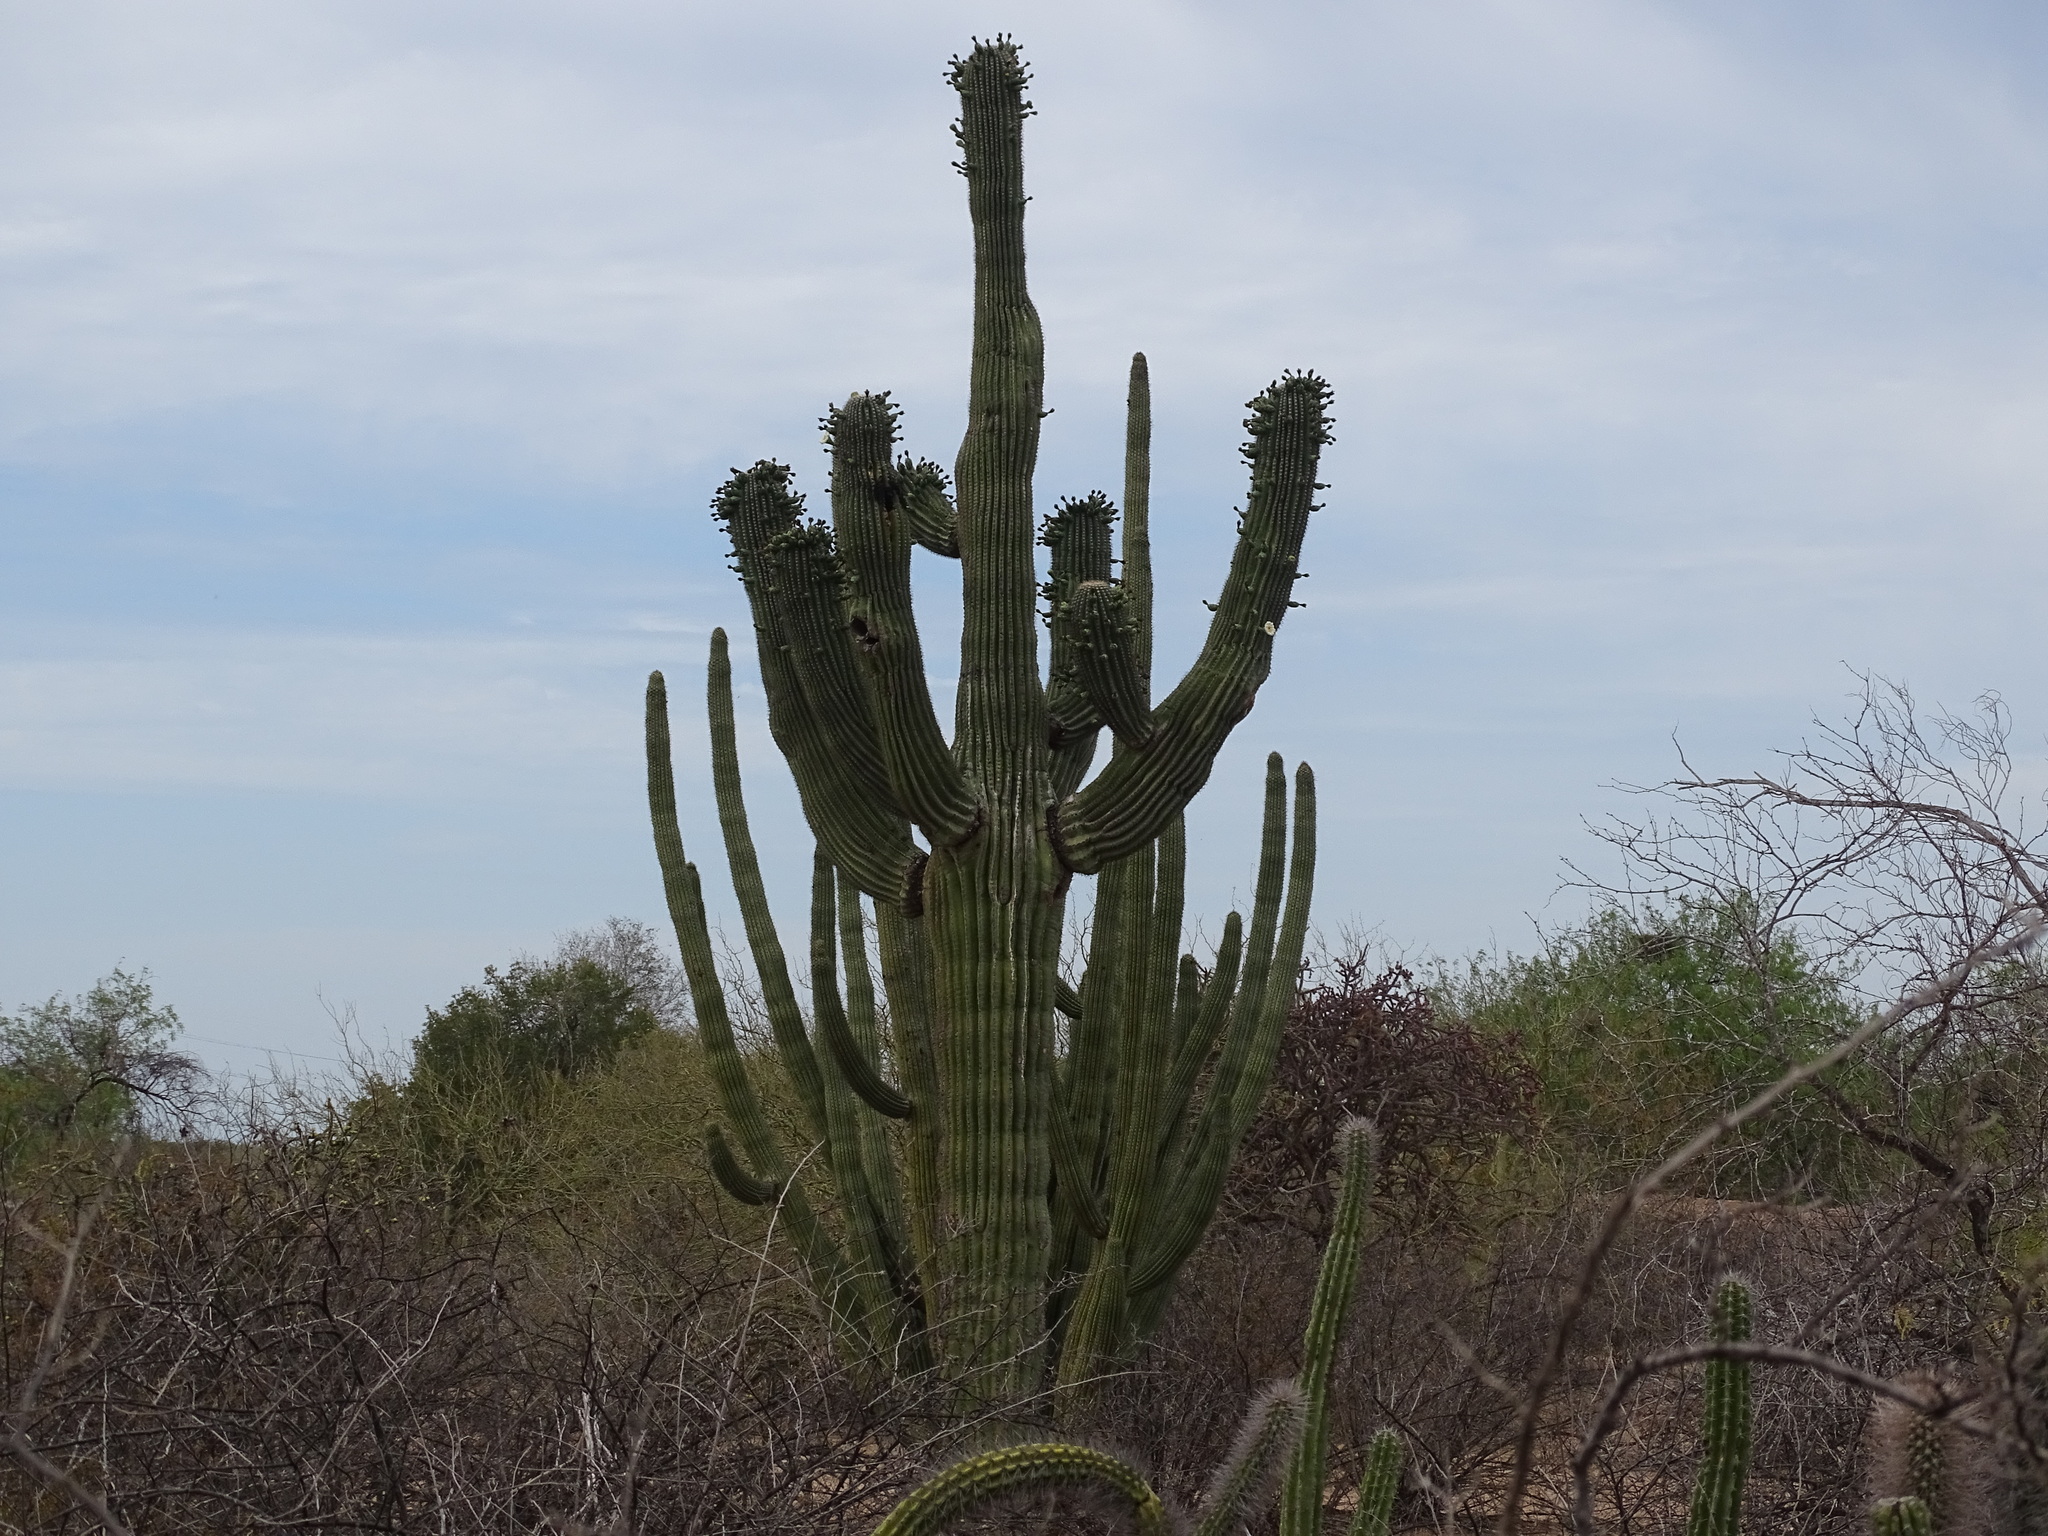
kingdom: Plantae
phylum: Tracheophyta
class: Magnoliopsida
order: Caryophyllales
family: Cactaceae
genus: Carnegiea
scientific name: Carnegiea gigantea
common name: Saguaro
